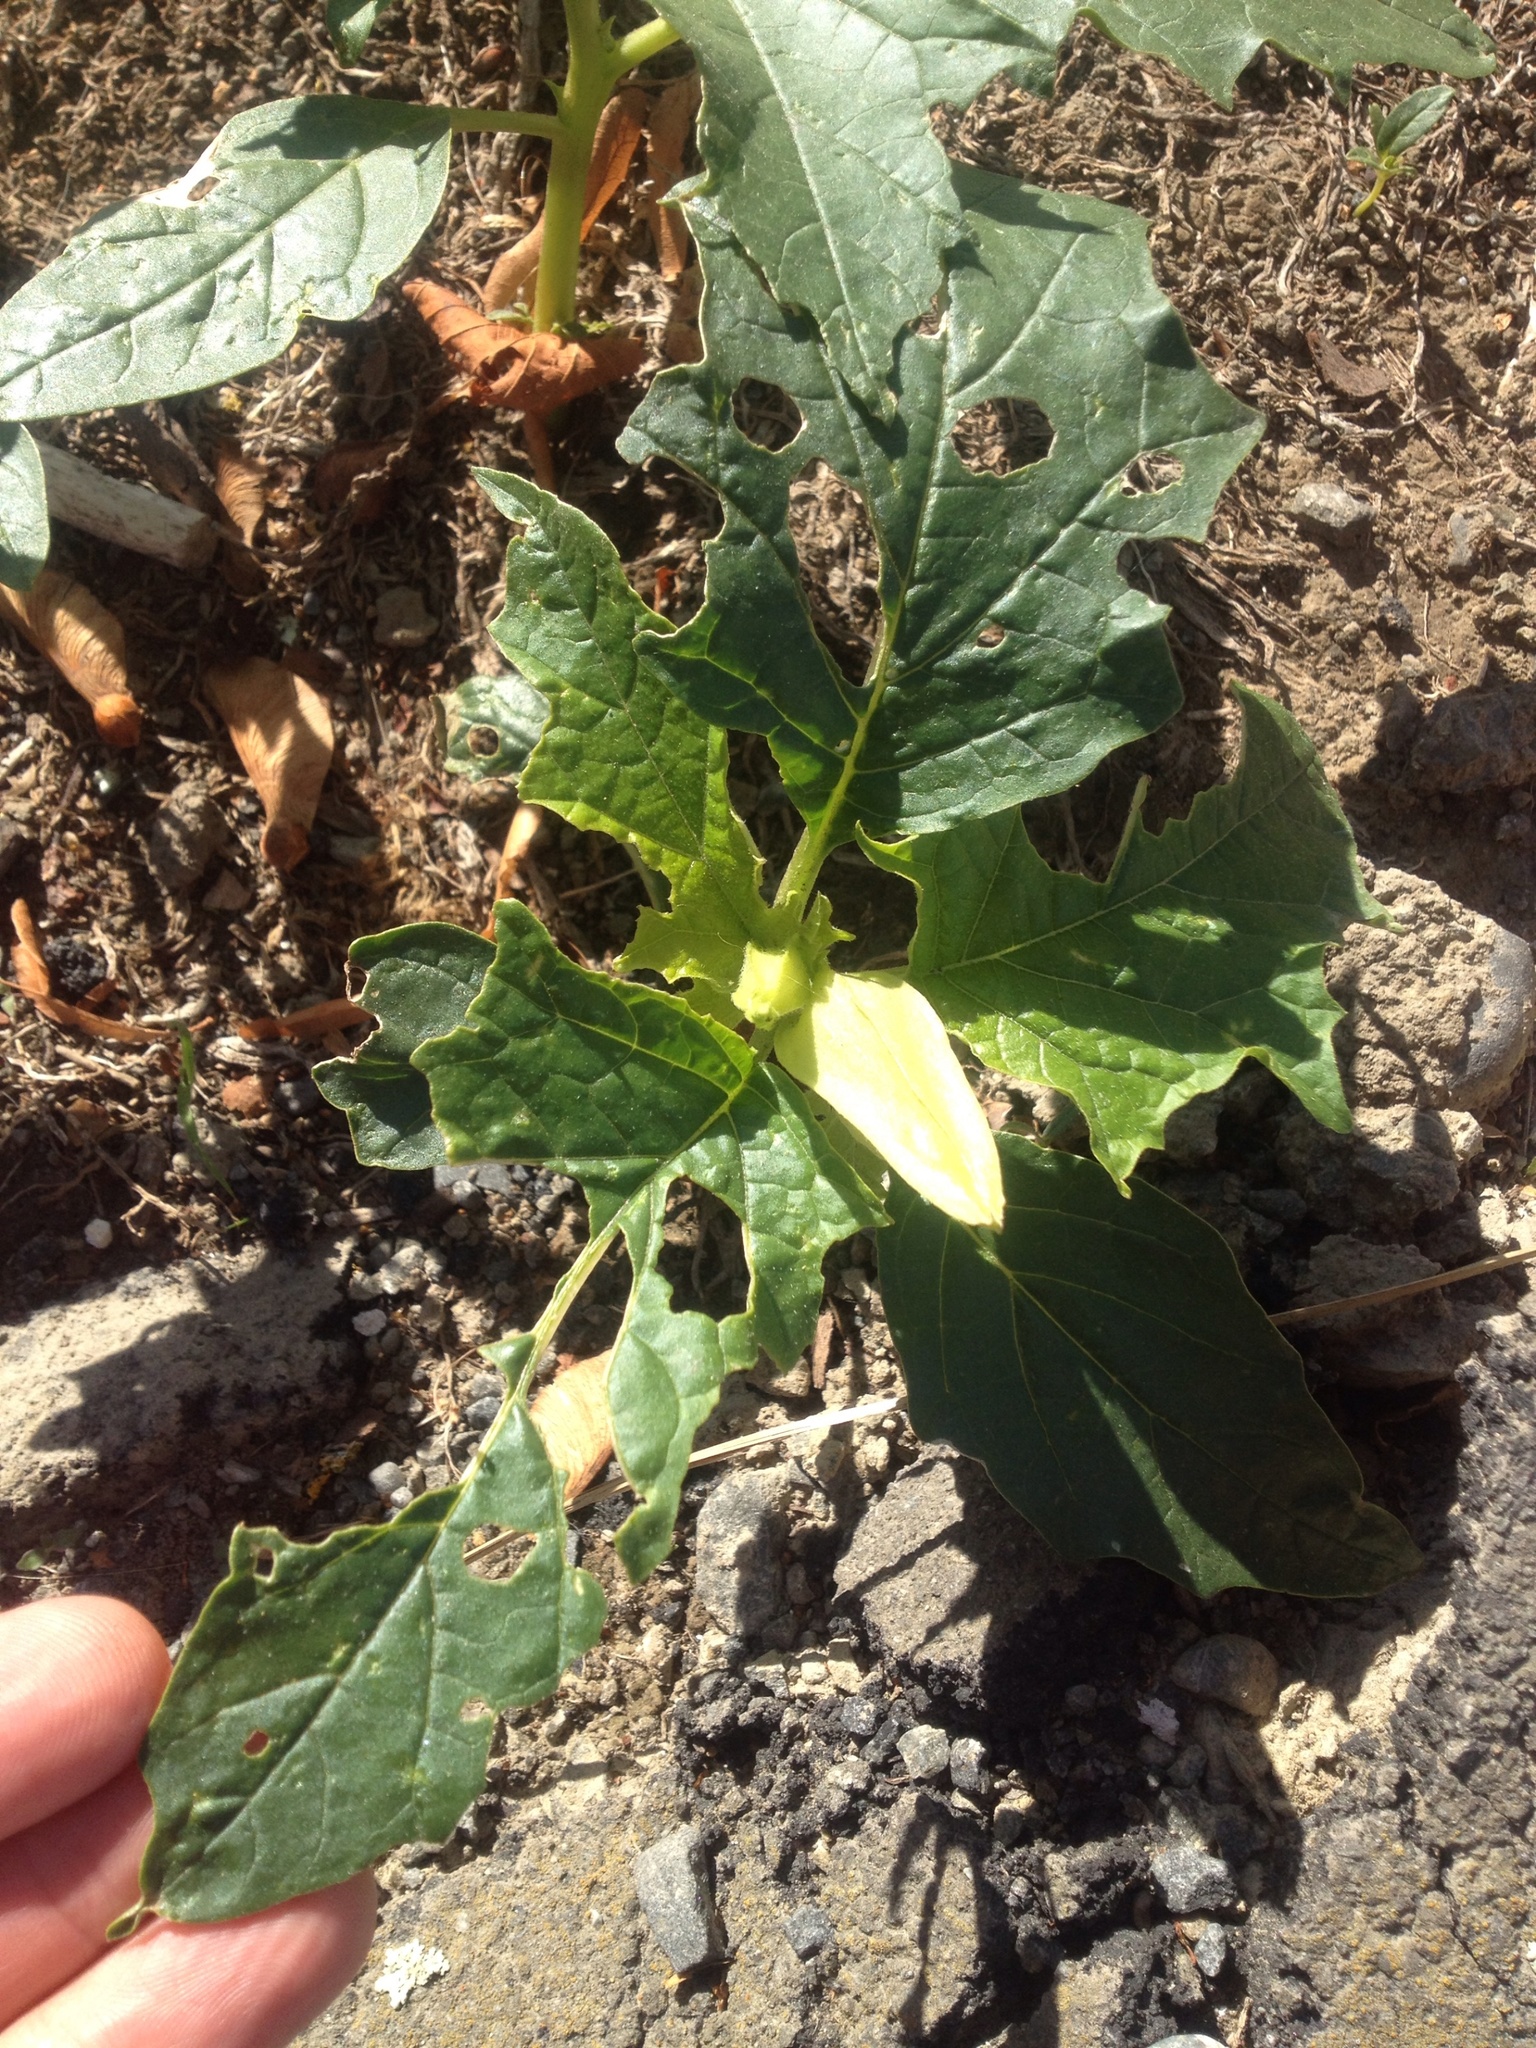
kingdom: Plantae
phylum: Tracheophyta
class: Magnoliopsida
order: Solanales
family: Solanaceae
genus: Datura
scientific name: Datura stramonium
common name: Thorn-apple
